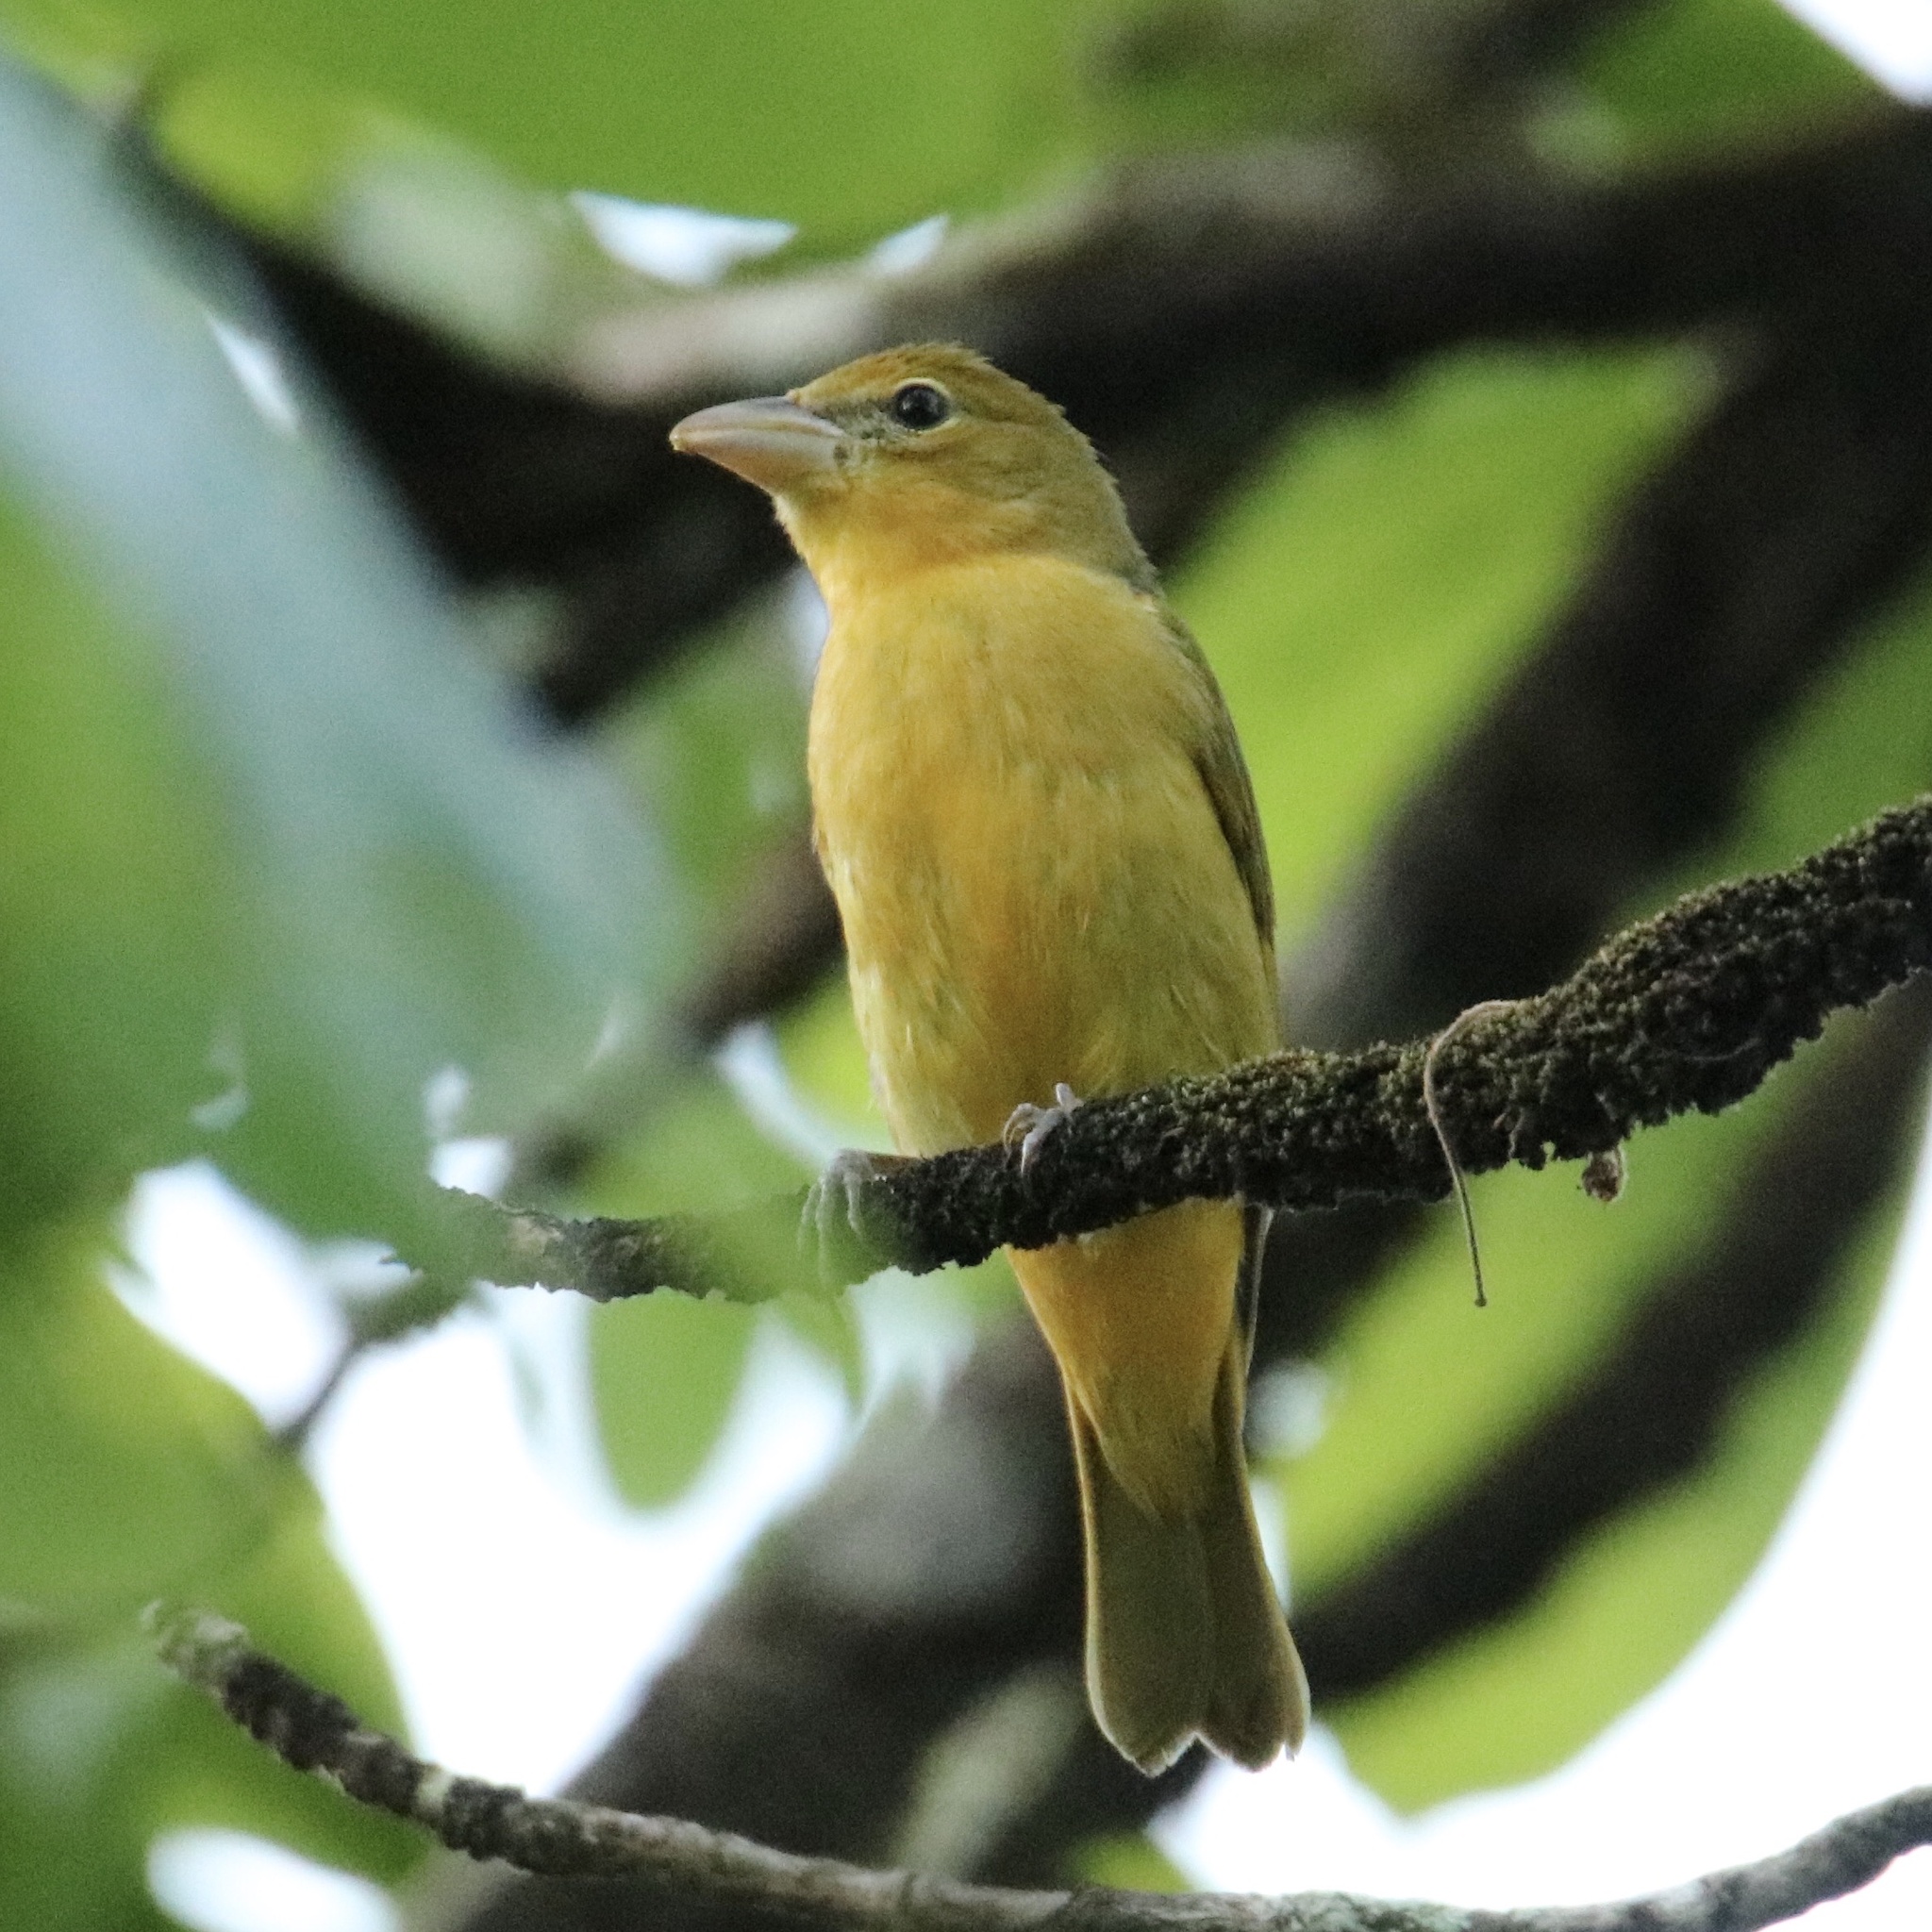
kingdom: Animalia
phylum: Chordata
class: Aves
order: Passeriformes
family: Cardinalidae
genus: Piranga
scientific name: Piranga rubra
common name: Summer tanager
